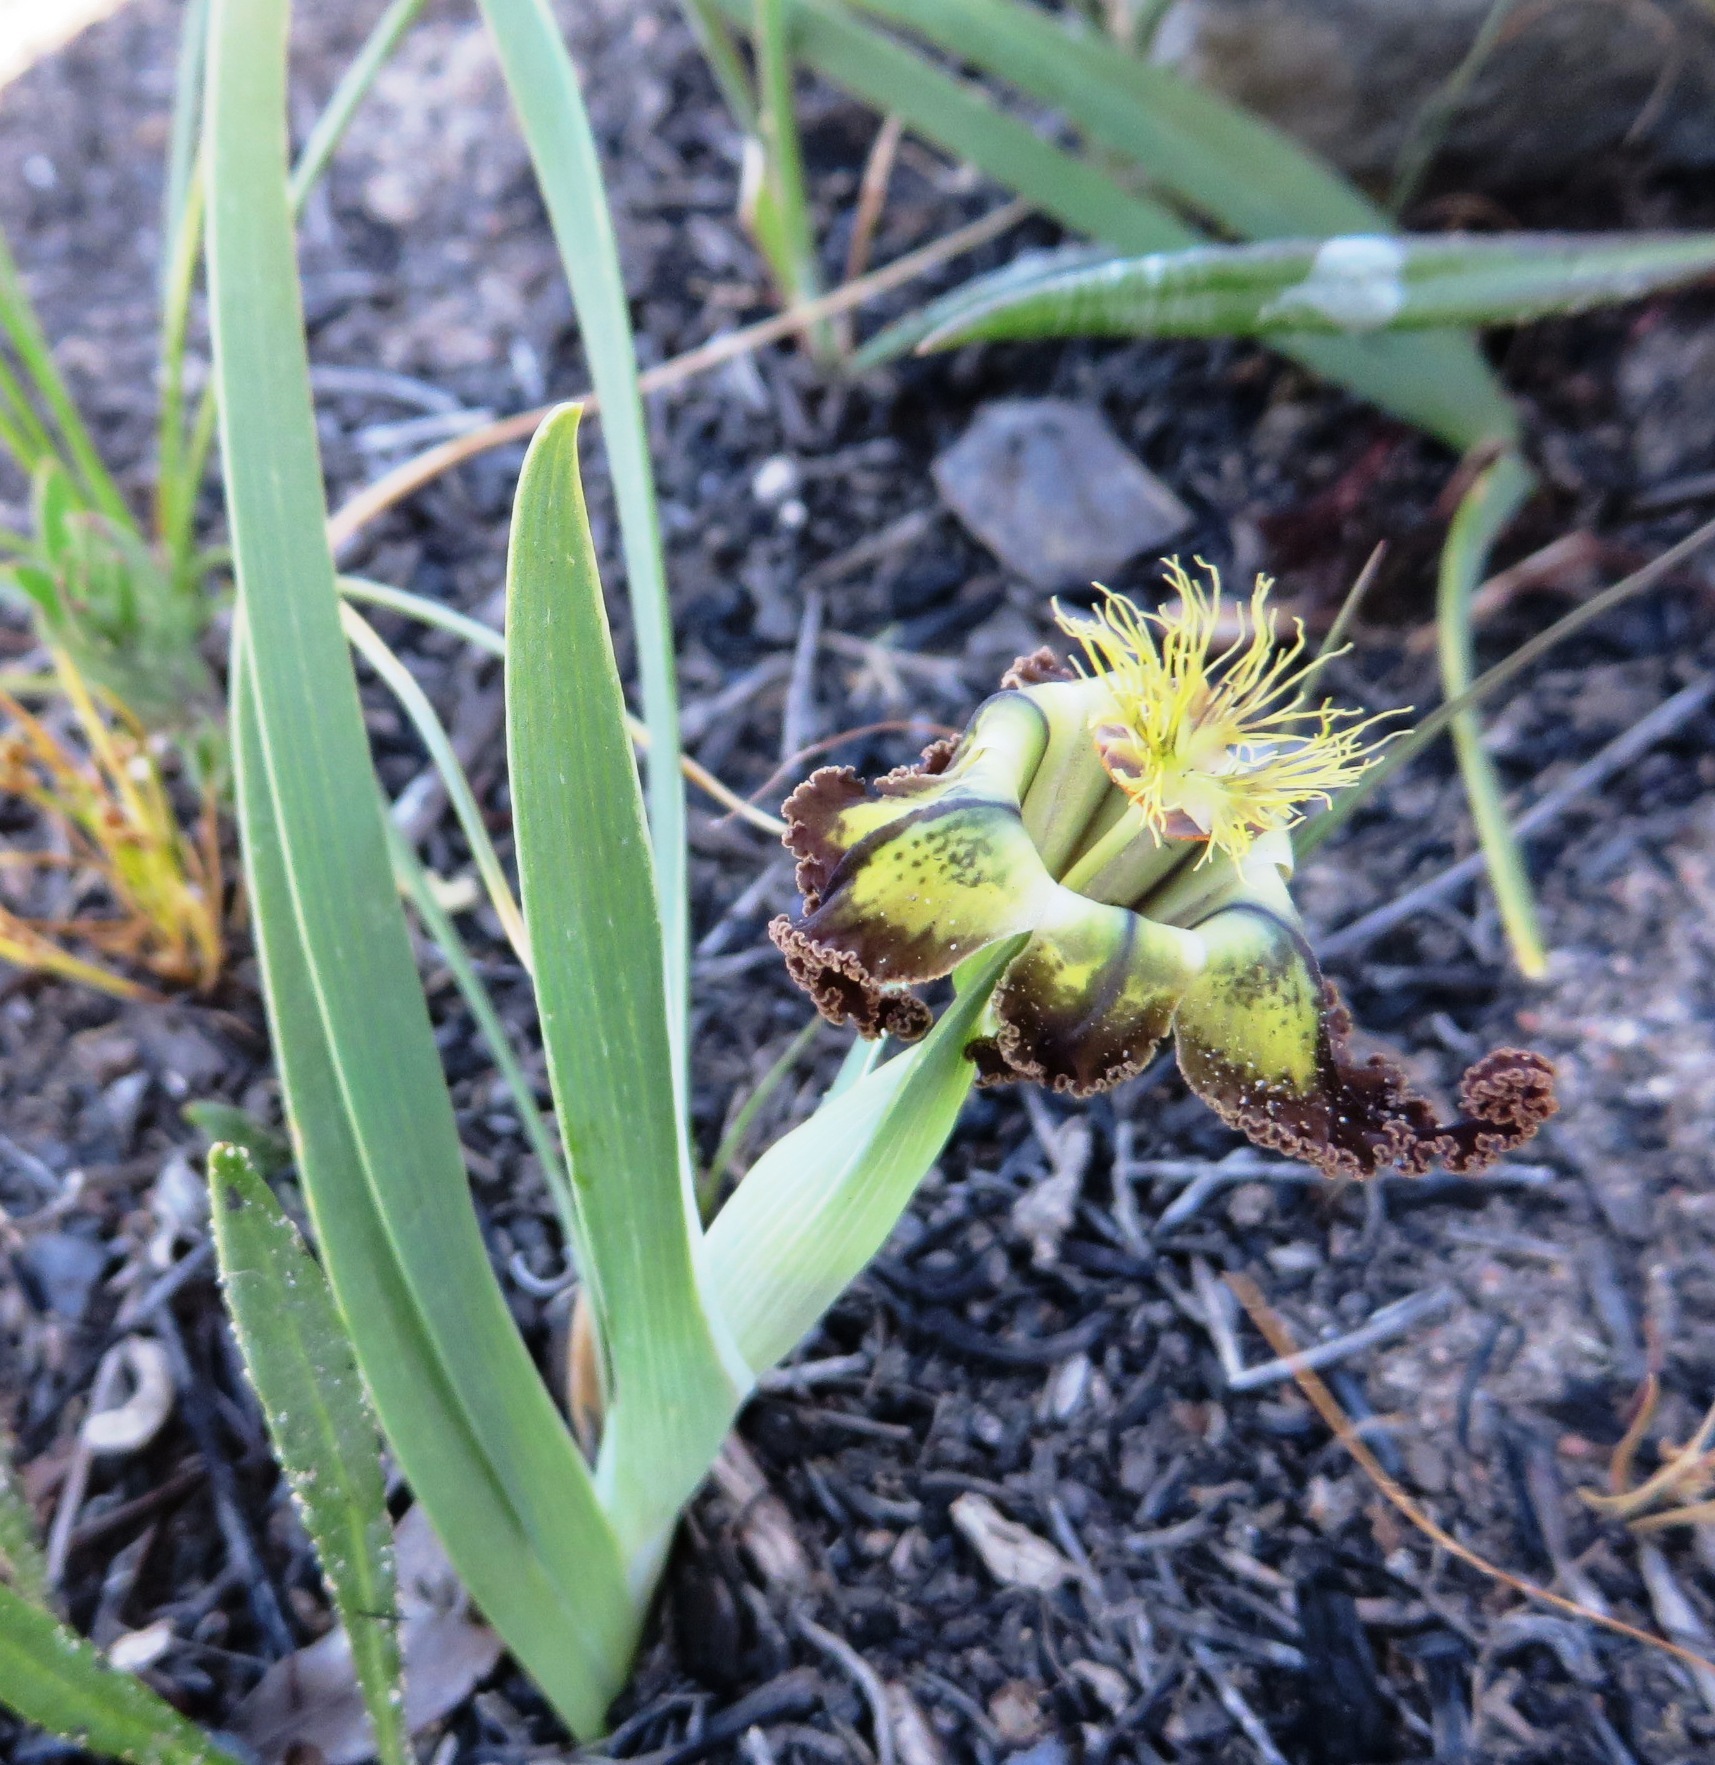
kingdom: Plantae
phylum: Tracheophyta
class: Liliopsida
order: Asparagales
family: Iridaceae
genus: Ferraria
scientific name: Ferraria variabilis
